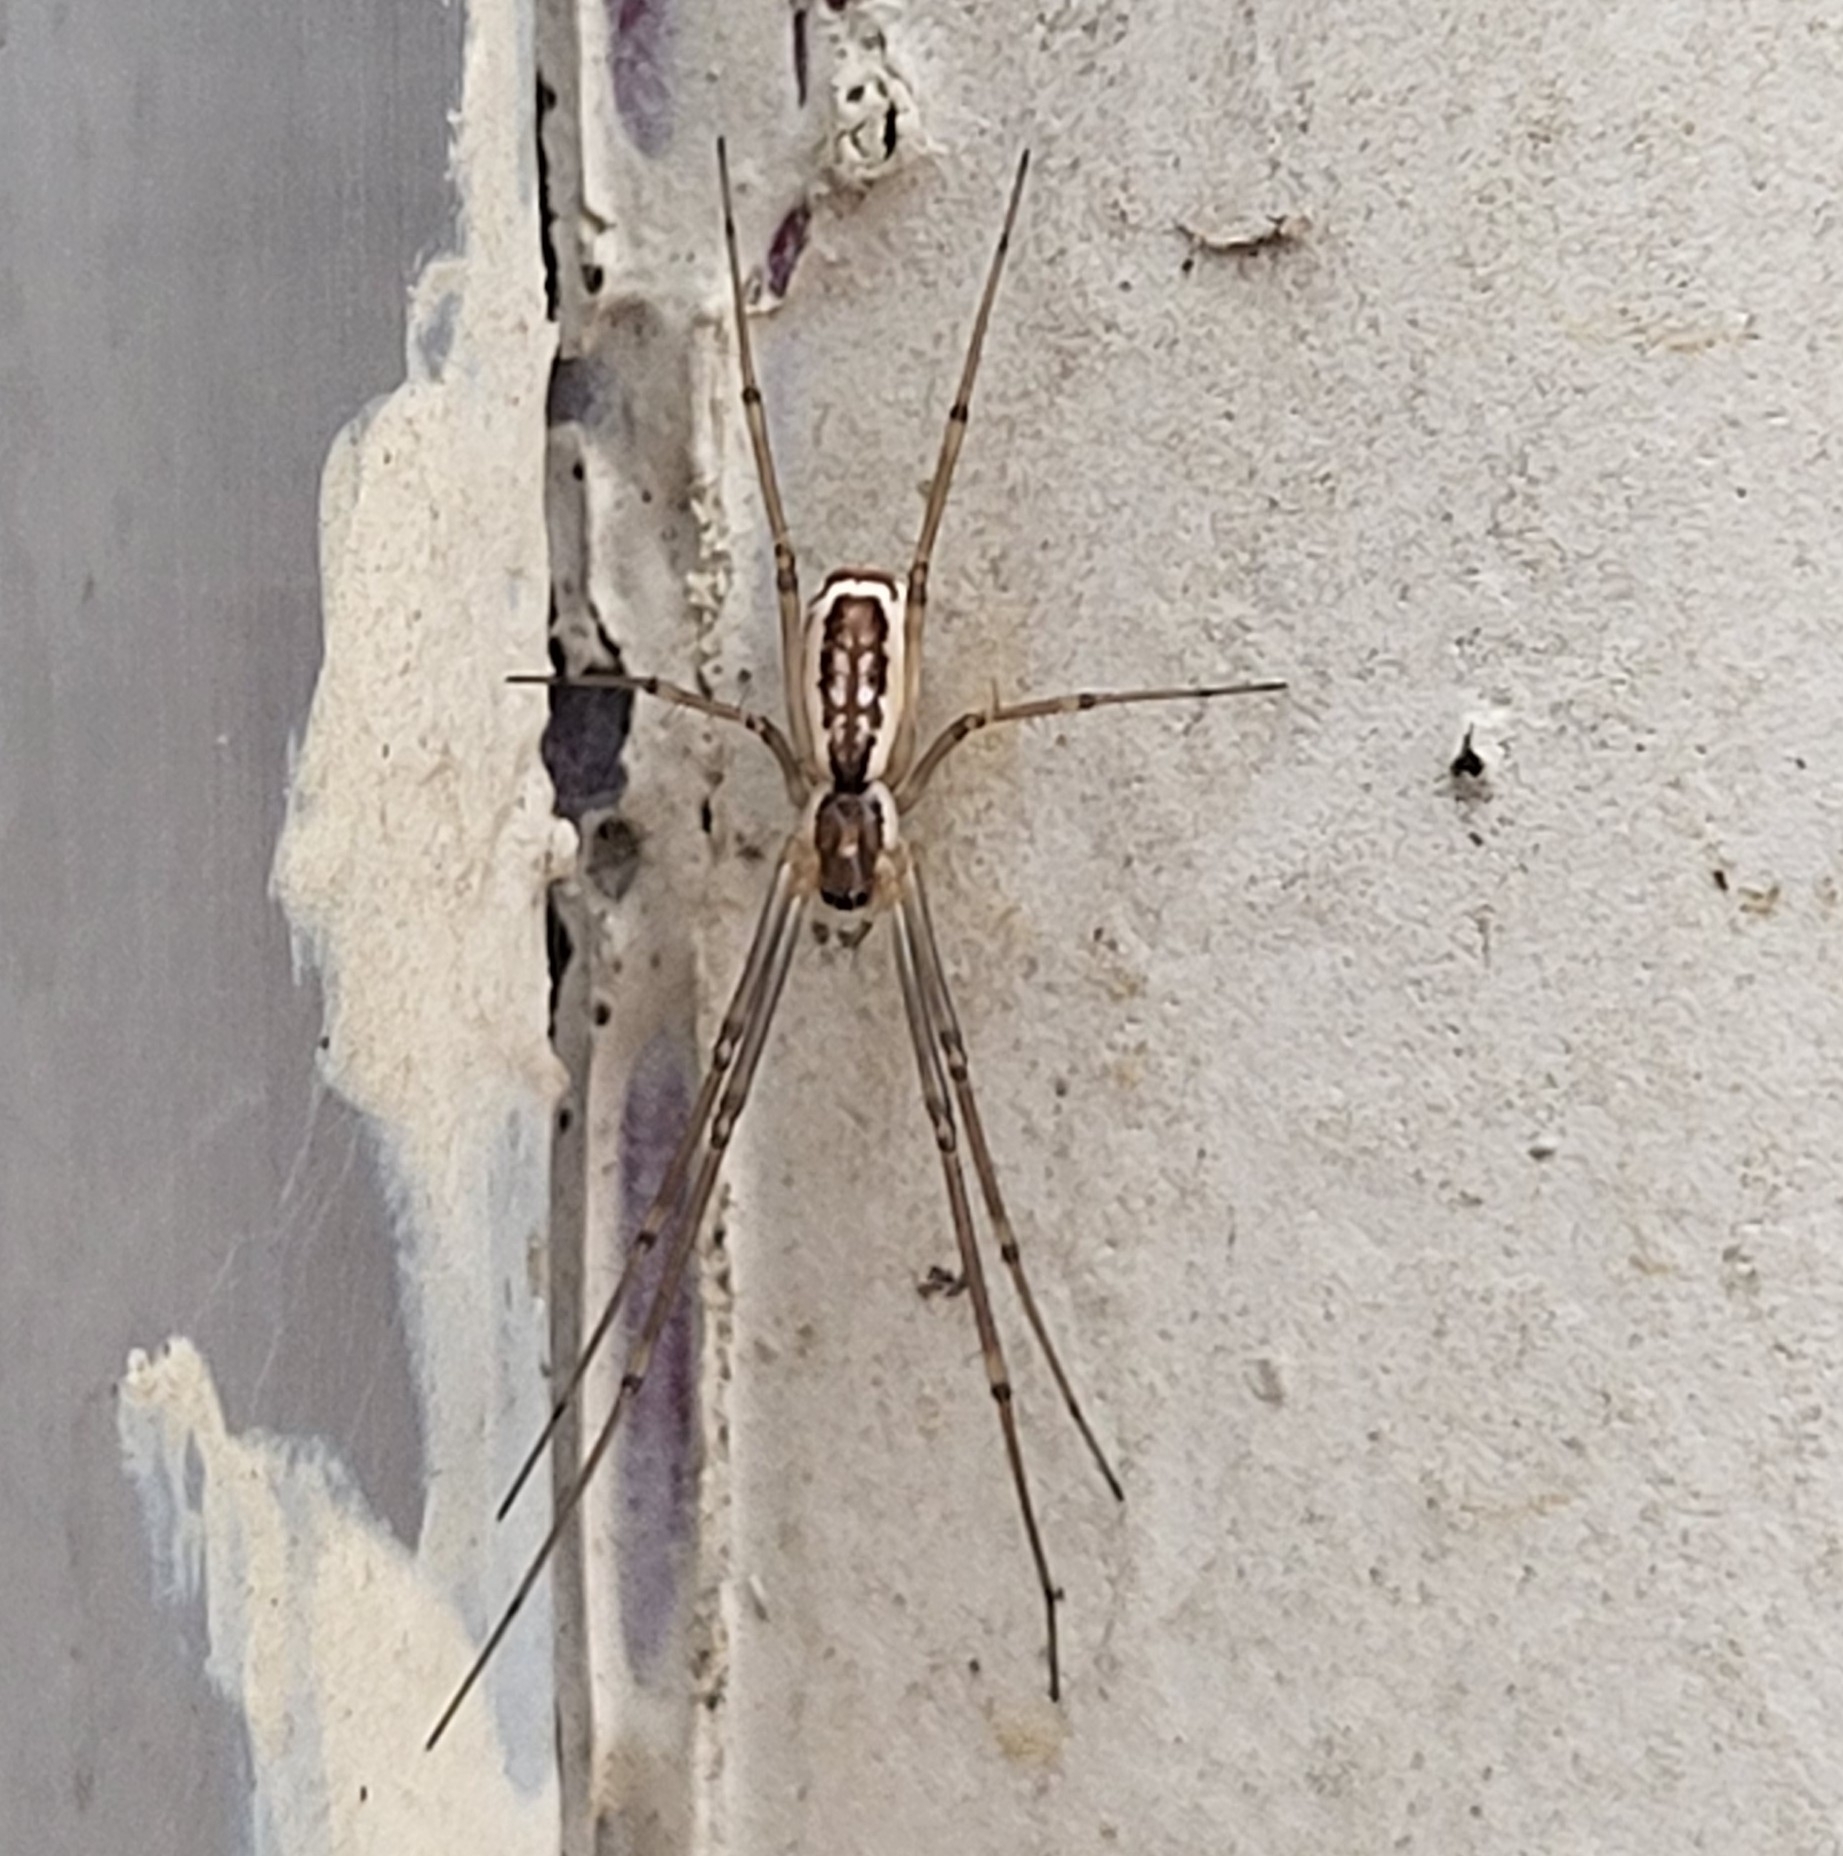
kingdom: Animalia
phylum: Arthropoda
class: Arachnida
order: Araneae
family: Linyphiidae
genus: Neriene
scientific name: Neriene radiata
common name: Filmy dome spider
